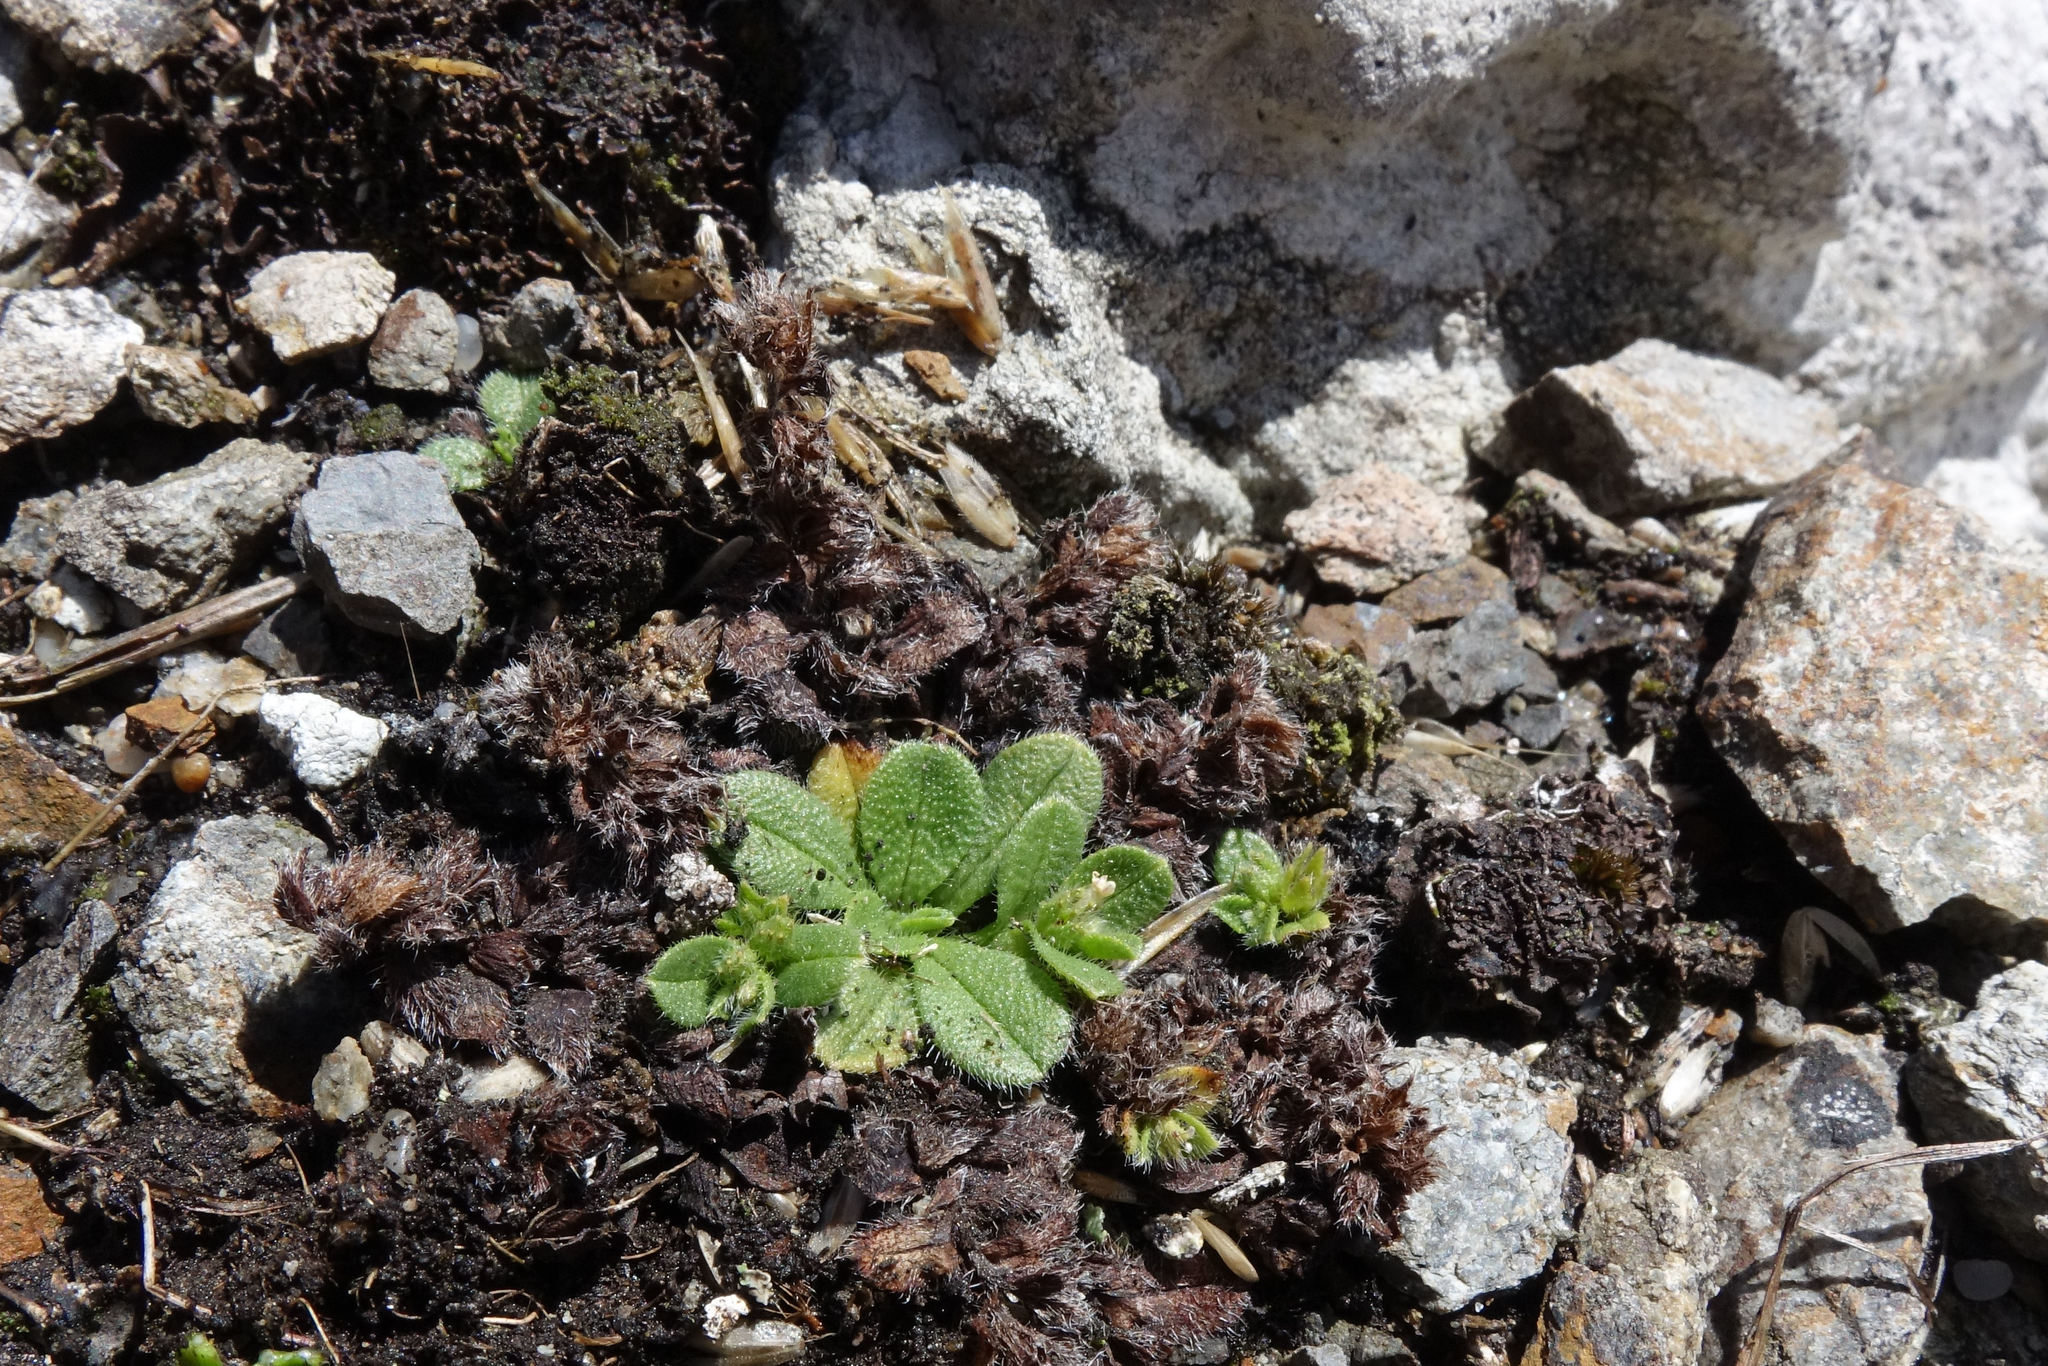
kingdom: Plantae
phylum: Tracheophyta
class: Magnoliopsida
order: Boraginales
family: Boraginaceae
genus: Myosotis
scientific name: Myosotis antarctica
